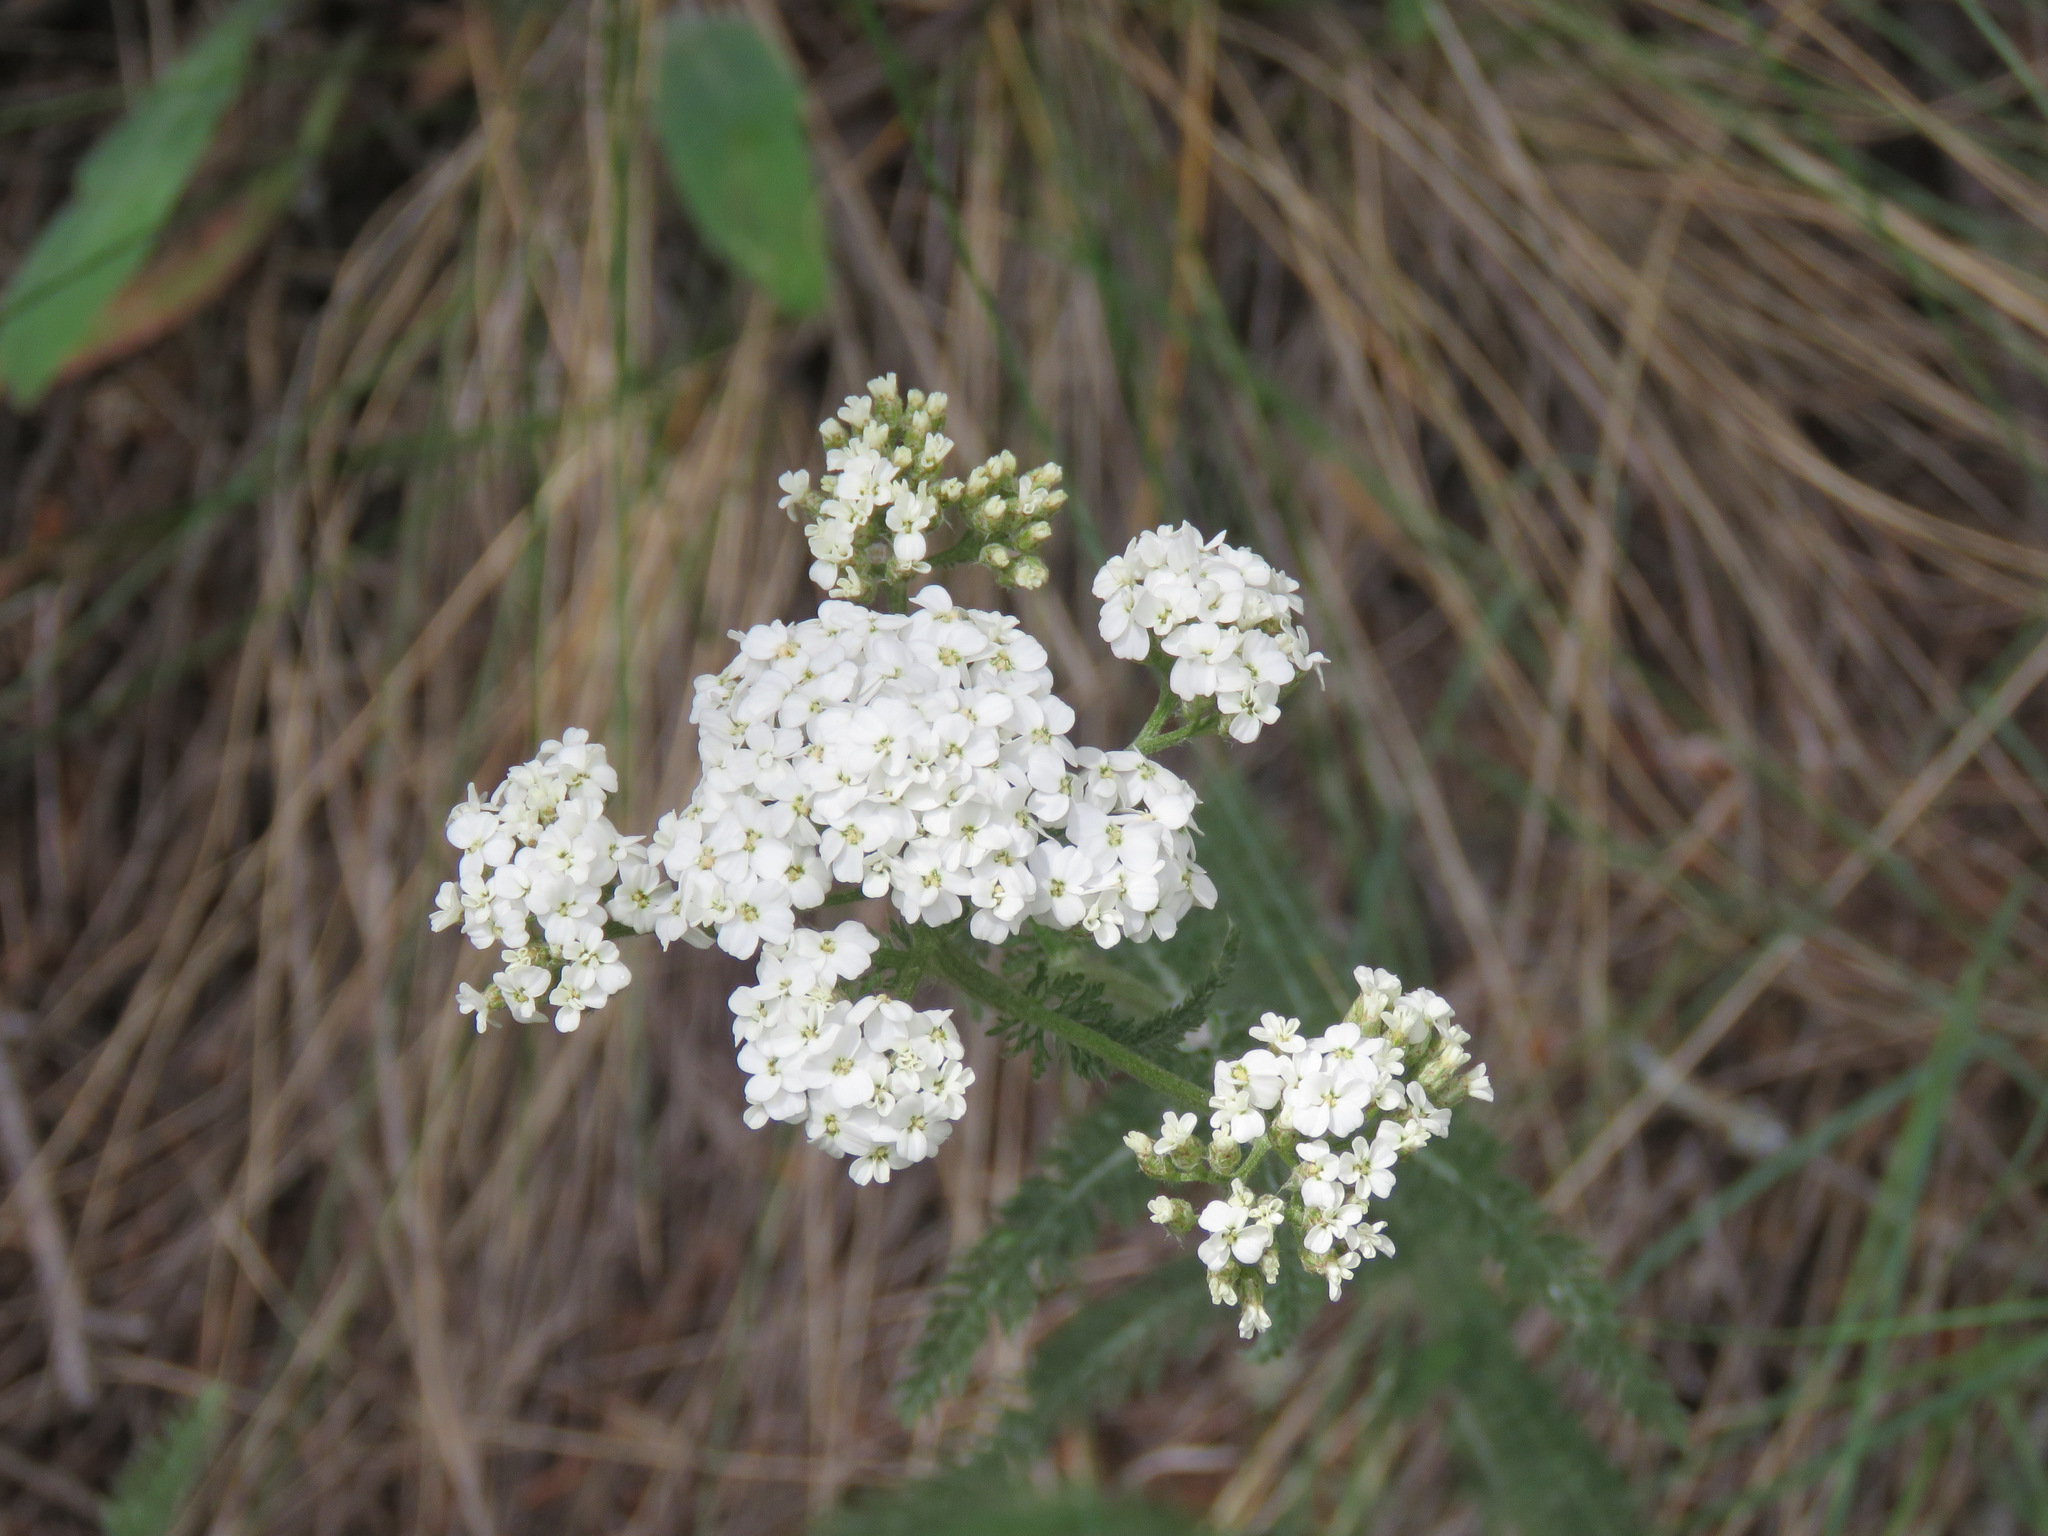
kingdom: Plantae
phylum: Tracheophyta
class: Magnoliopsida
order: Asterales
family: Asteraceae
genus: Achillea
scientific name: Achillea millefolium
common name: Yarrow
